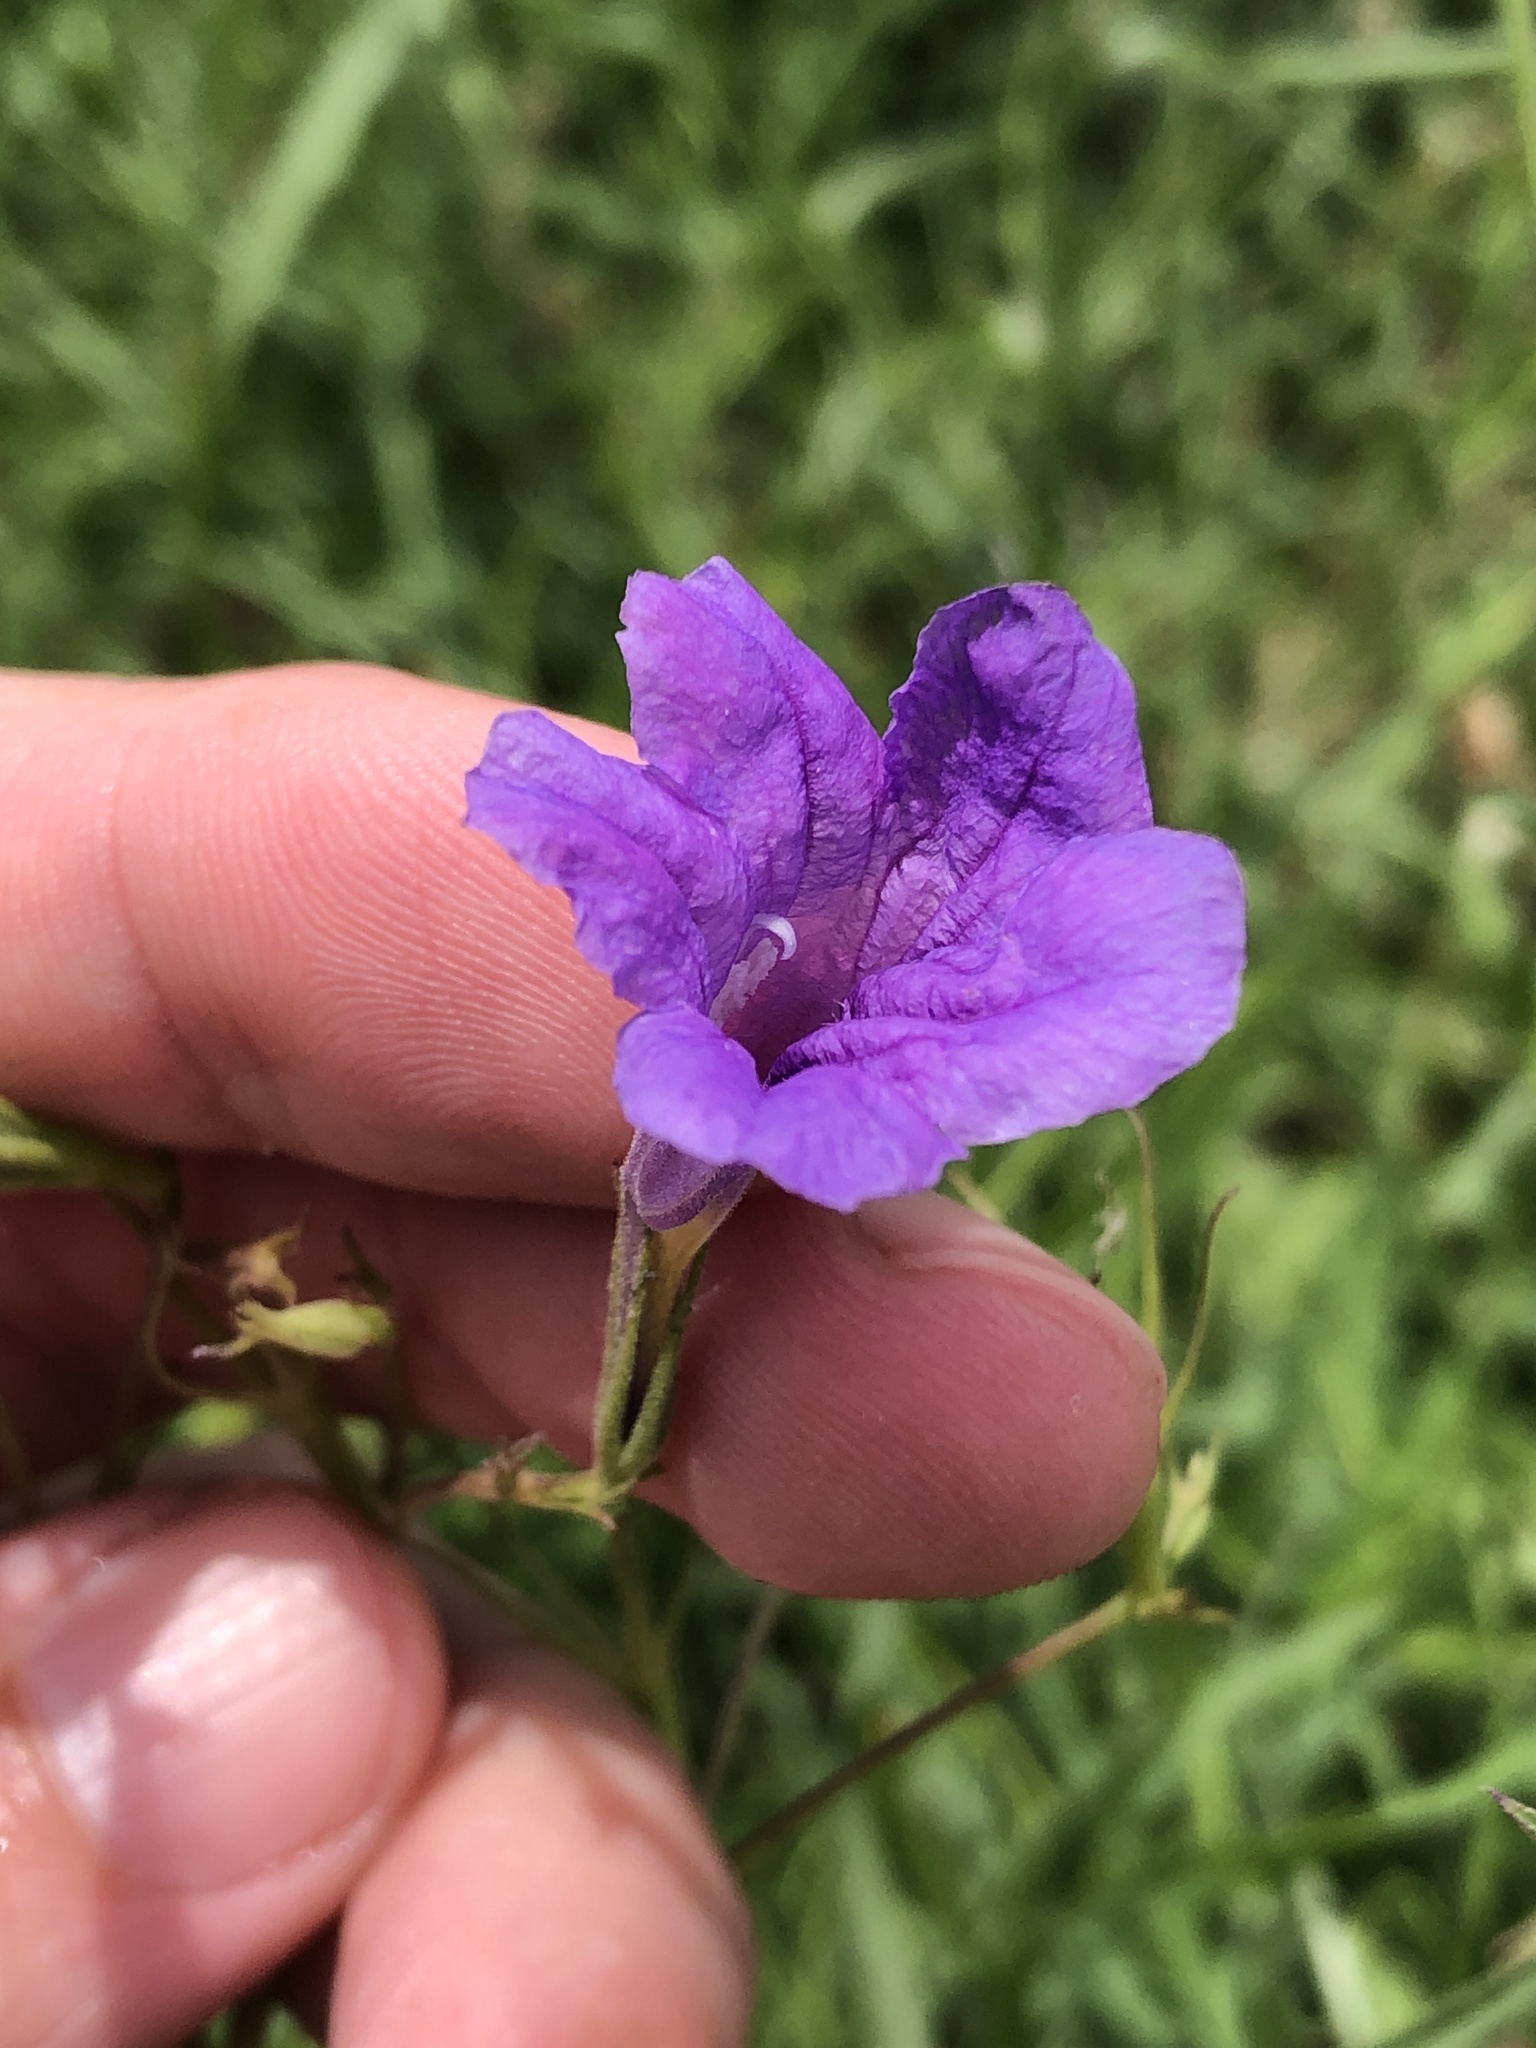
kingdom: Plantae
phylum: Tracheophyta
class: Magnoliopsida
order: Lamiales
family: Acanthaceae
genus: Ruellia
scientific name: Ruellia ciliatiflora
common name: Hairyflower wild petunia
